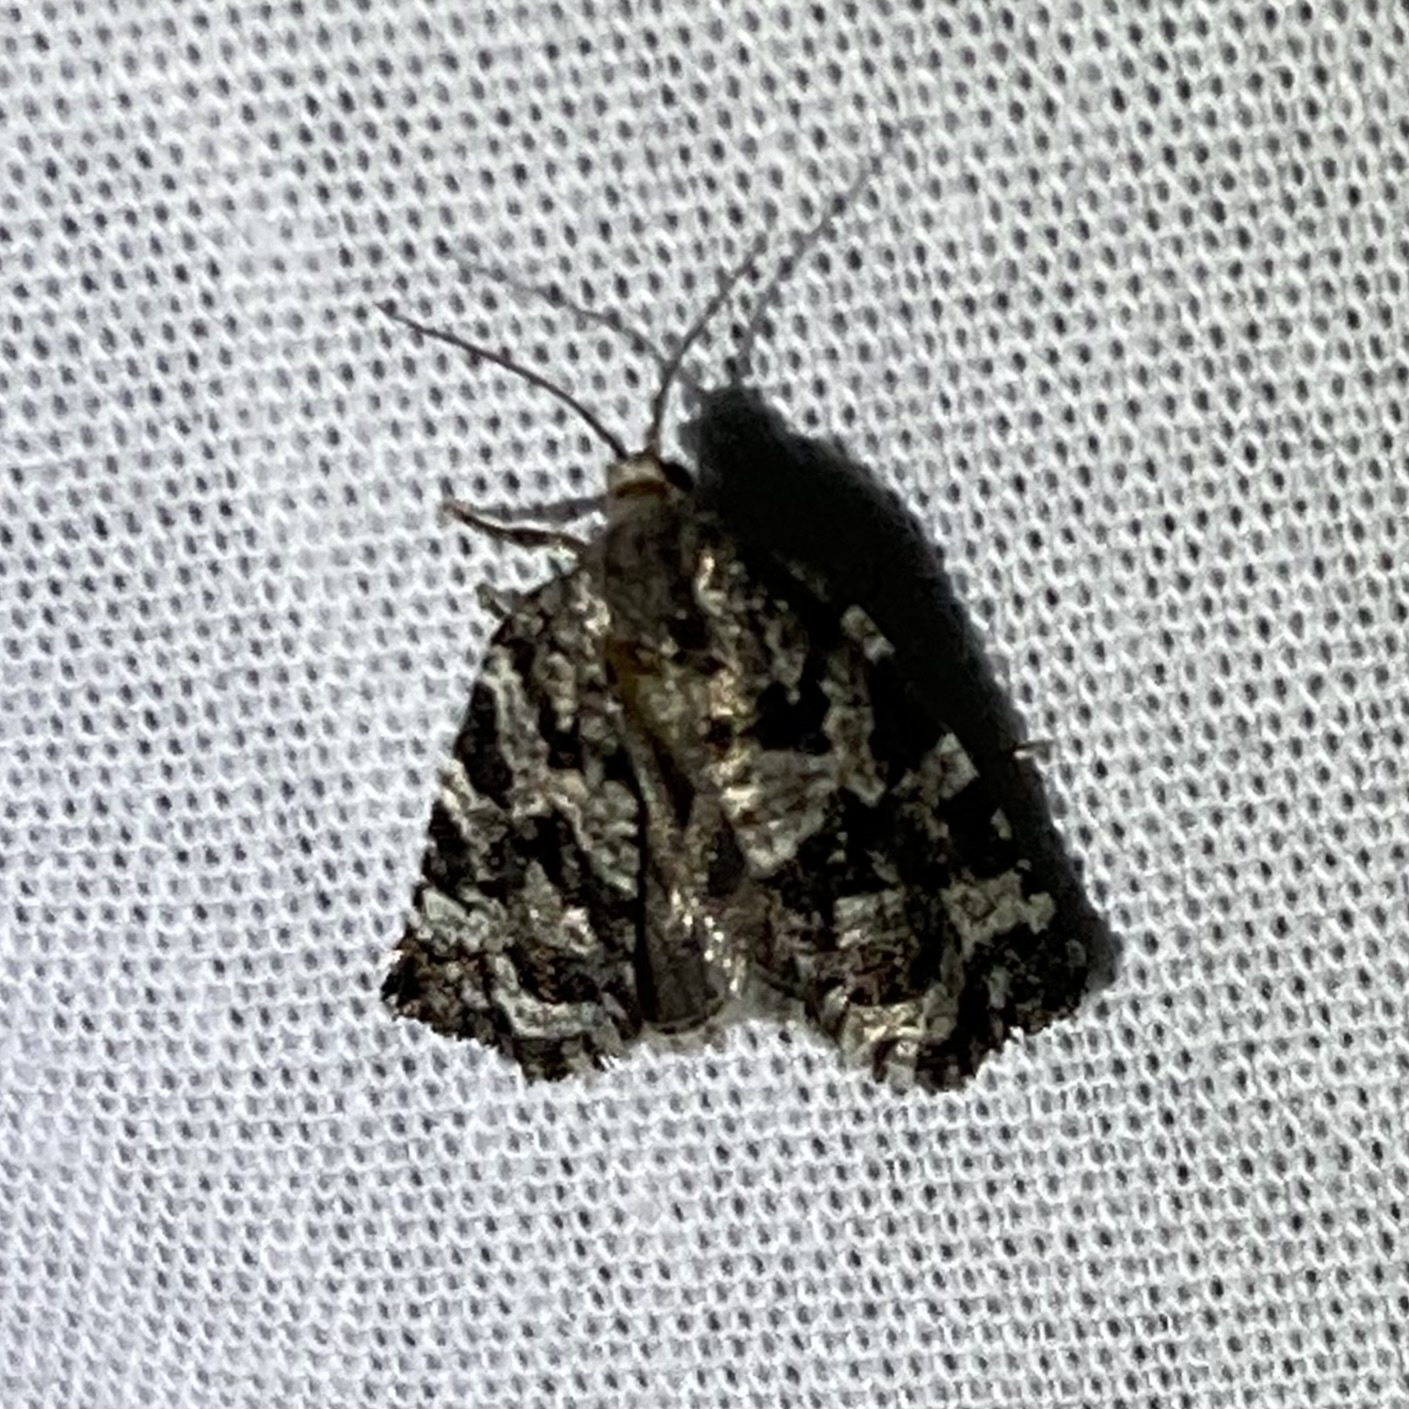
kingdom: Animalia
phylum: Arthropoda
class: Insecta
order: Lepidoptera
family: Tortricidae
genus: Archips
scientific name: Archips packardiana
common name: Spring spruce needle moth
